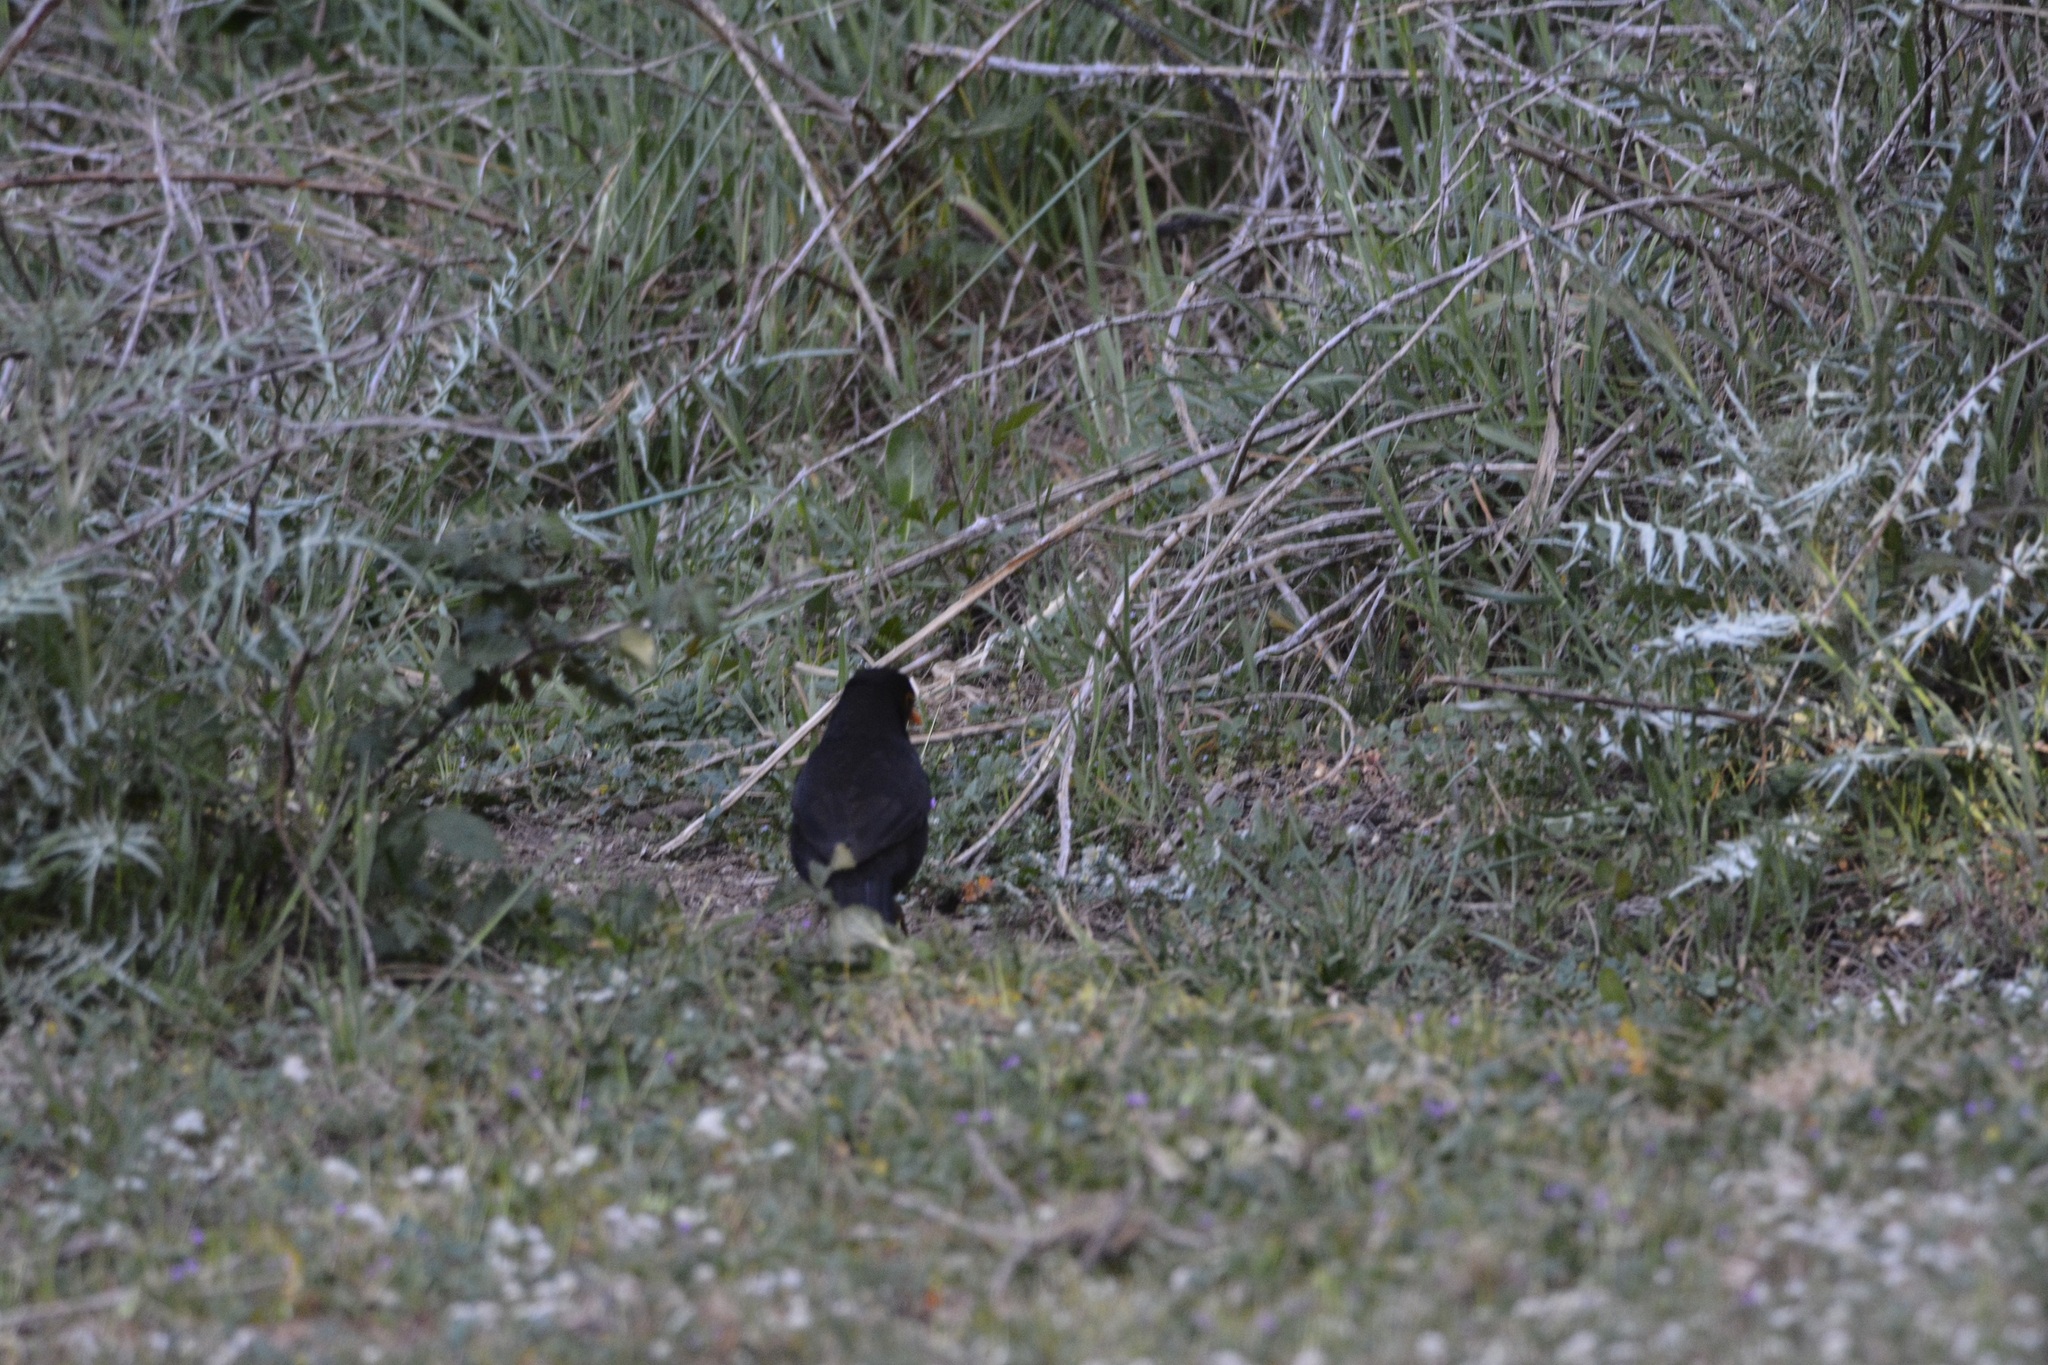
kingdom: Animalia
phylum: Chordata
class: Aves
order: Passeriformes
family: Turdidae
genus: Turdus
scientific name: Turdus merula
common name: Common blackbird
